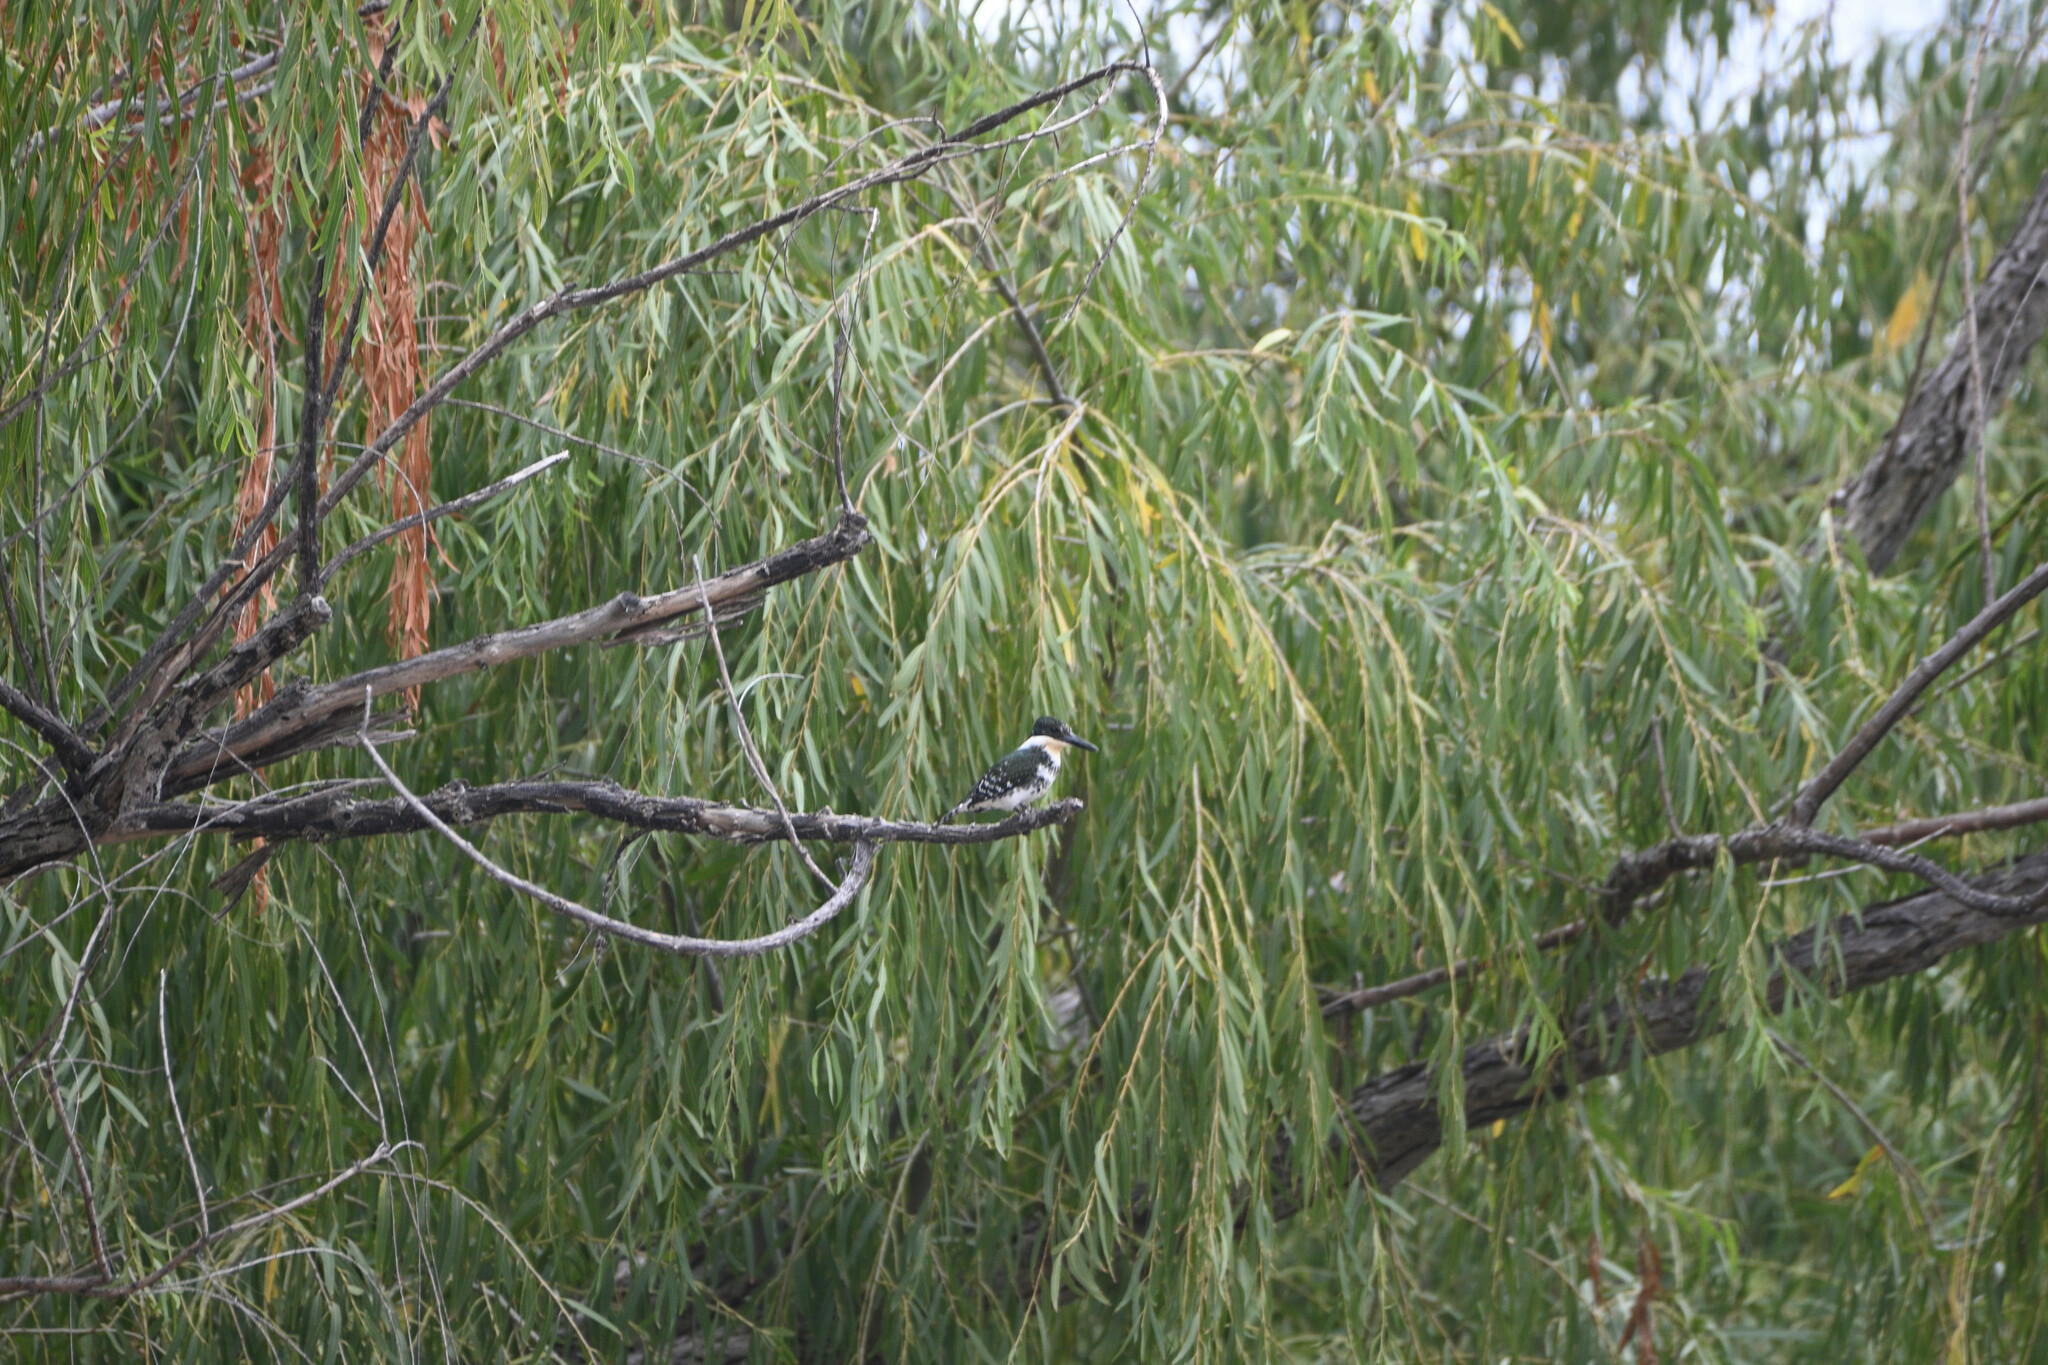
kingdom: Animalia
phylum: Chordata
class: Aves
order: Coraciiformes
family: Alcedinidae
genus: Chloroceryle
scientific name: Chloroceryle americana
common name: Green kingfisher
